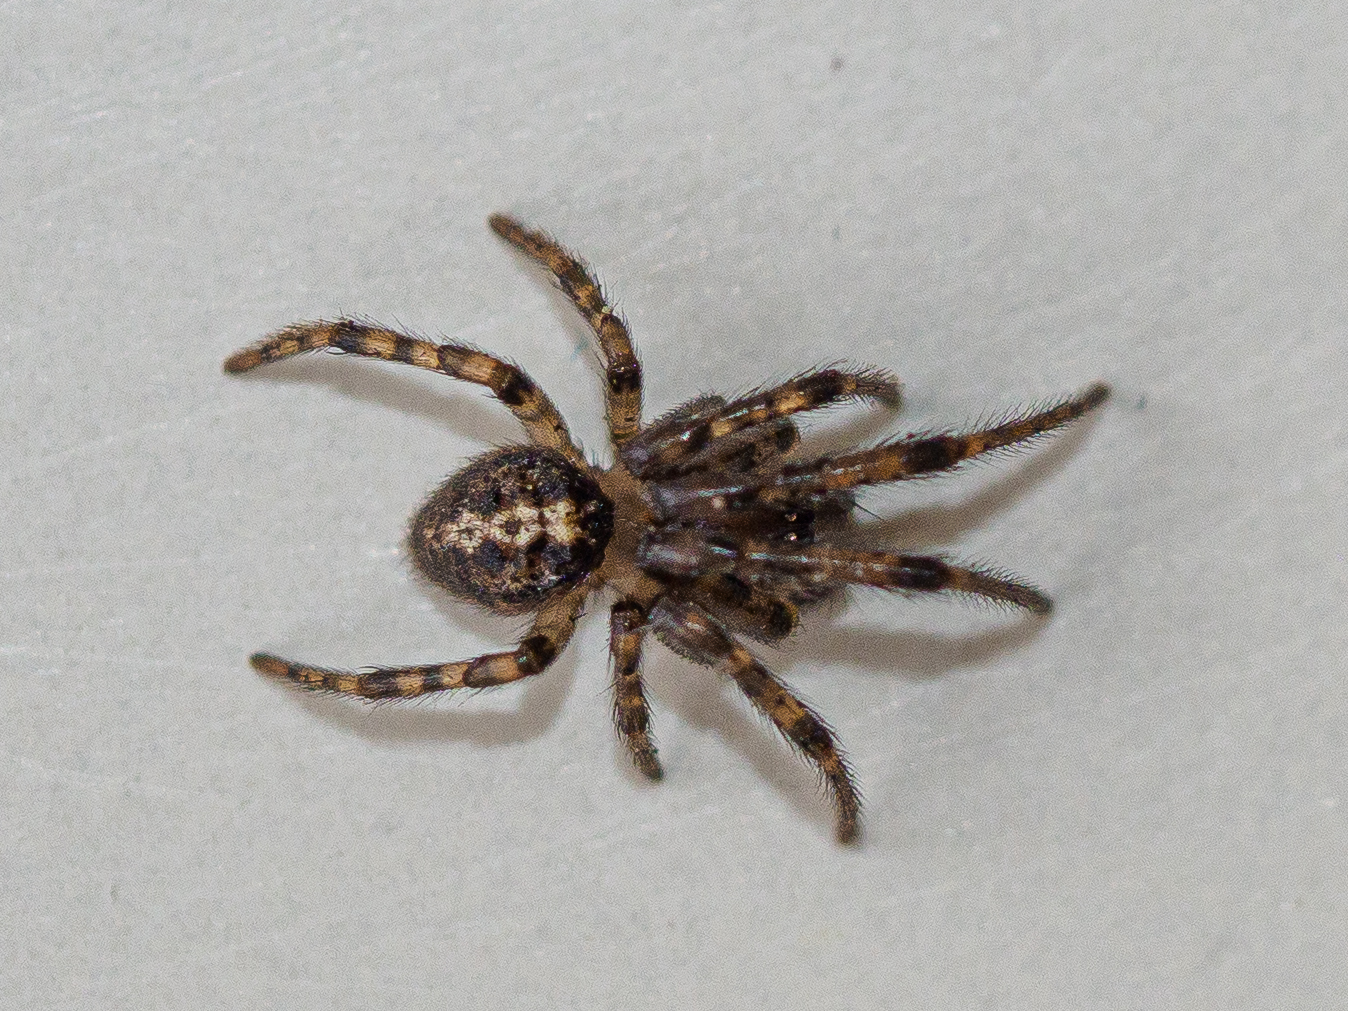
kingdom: Animalia
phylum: Arthropoda
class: Arachnida
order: Araneae
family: Araneidae
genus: Leviellus
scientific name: Leviellus thorelli
